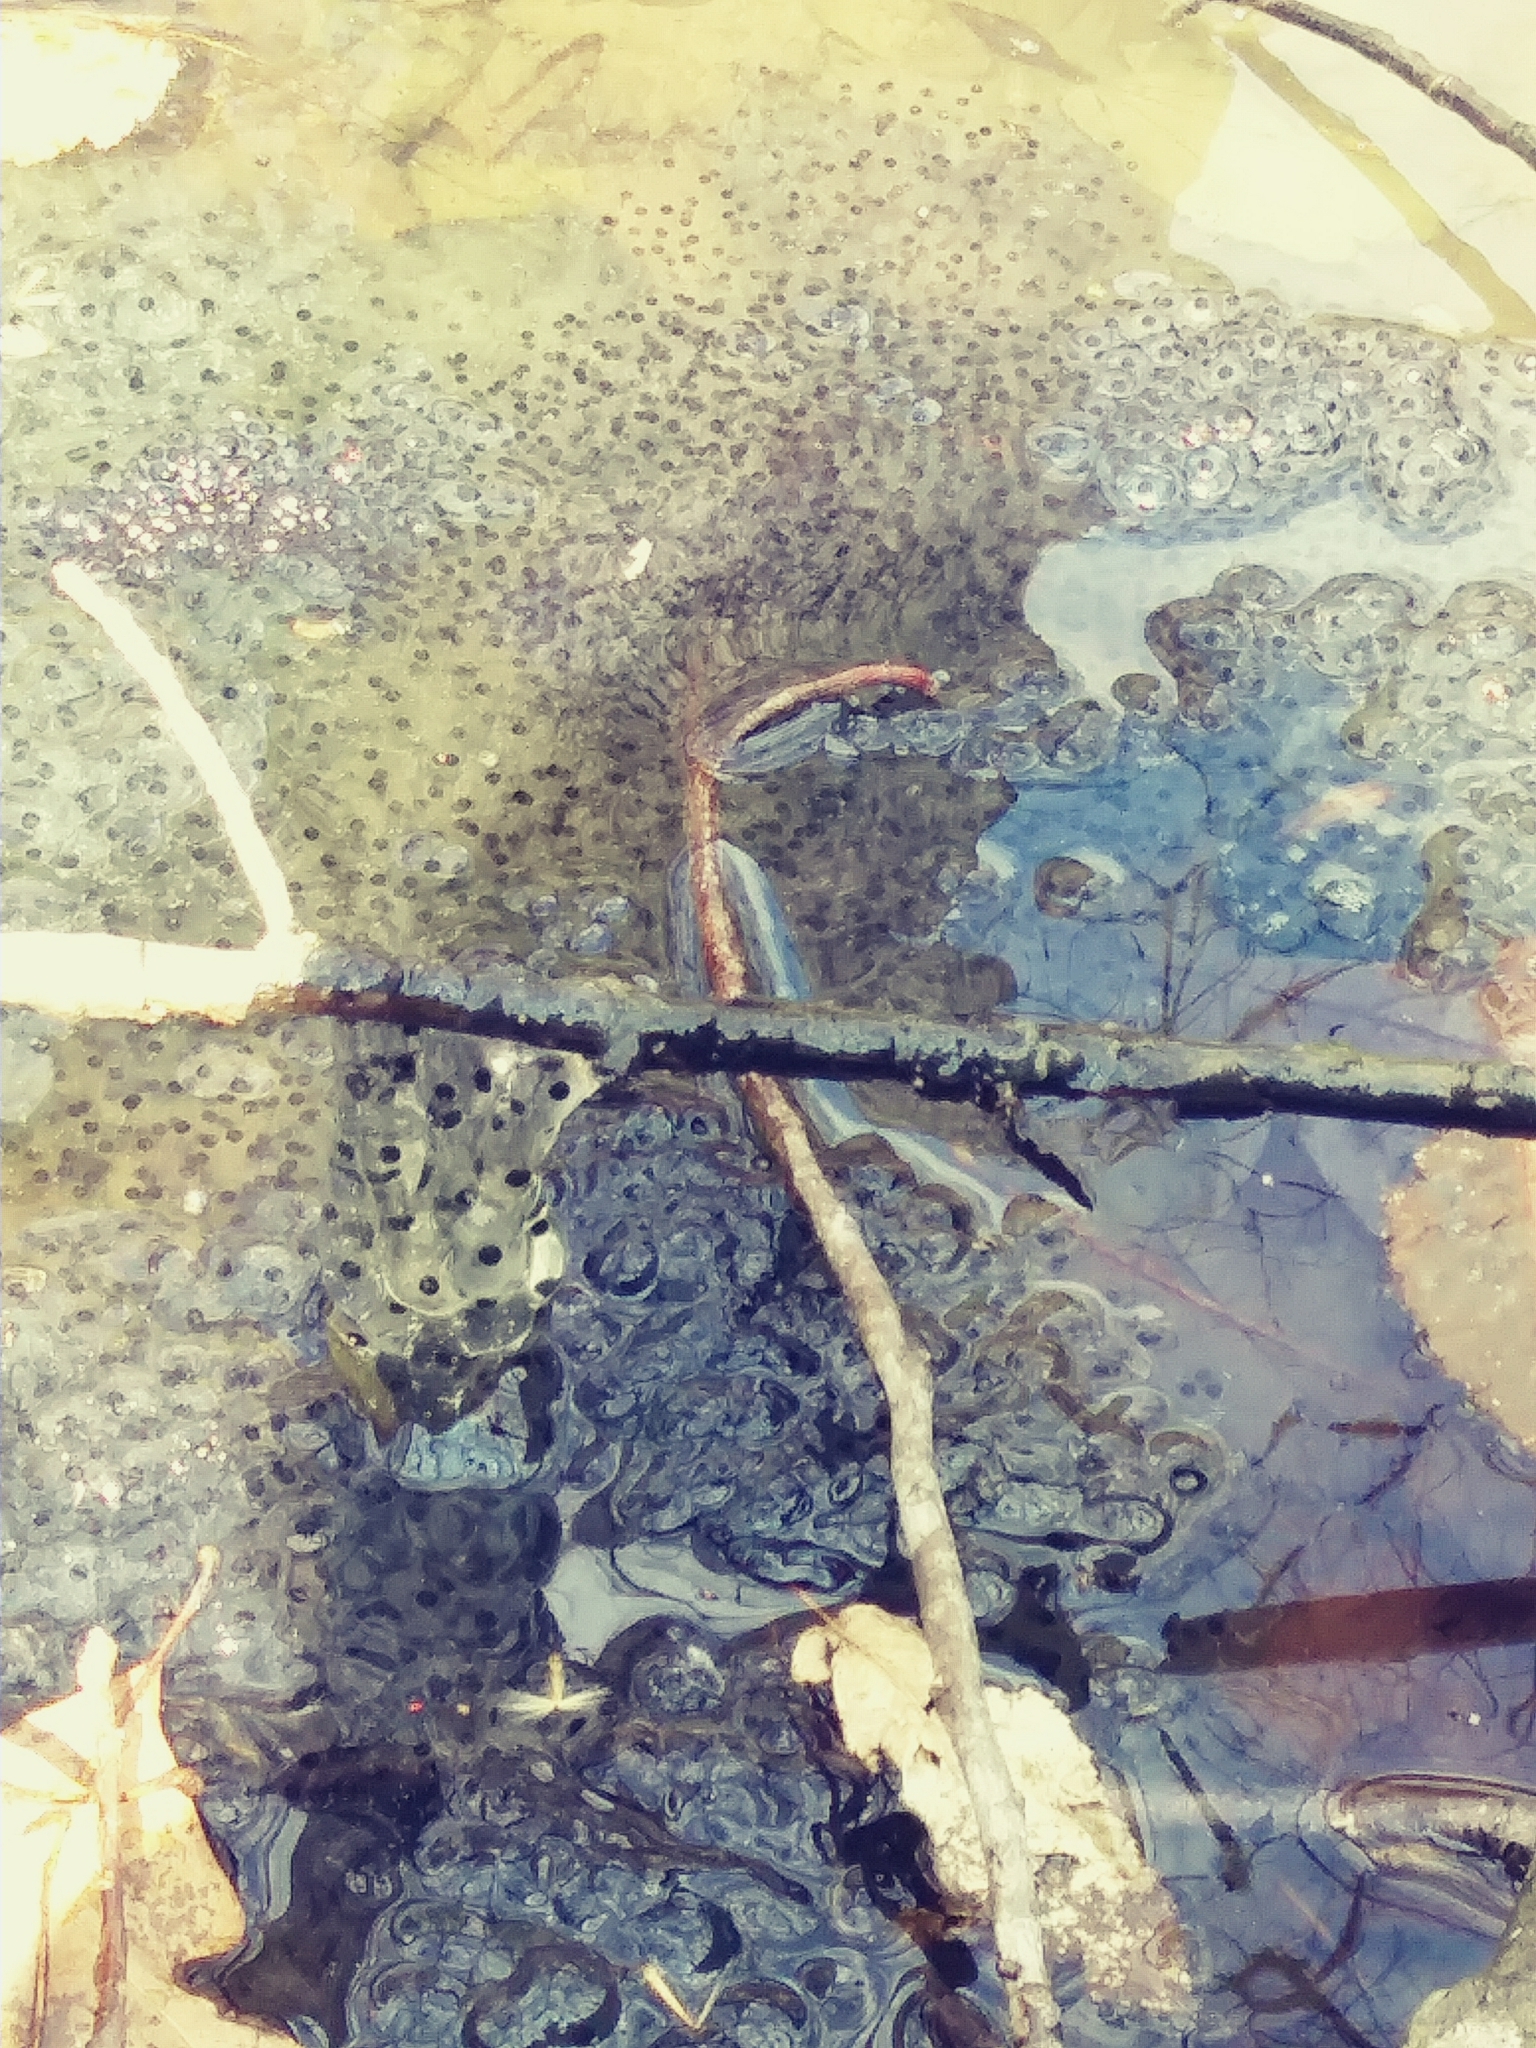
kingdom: Animalia
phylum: Chordata
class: Amphibia
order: Anura
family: Ranidae
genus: Lithobates
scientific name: Lithobates sylvaticus
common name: Wood frog
